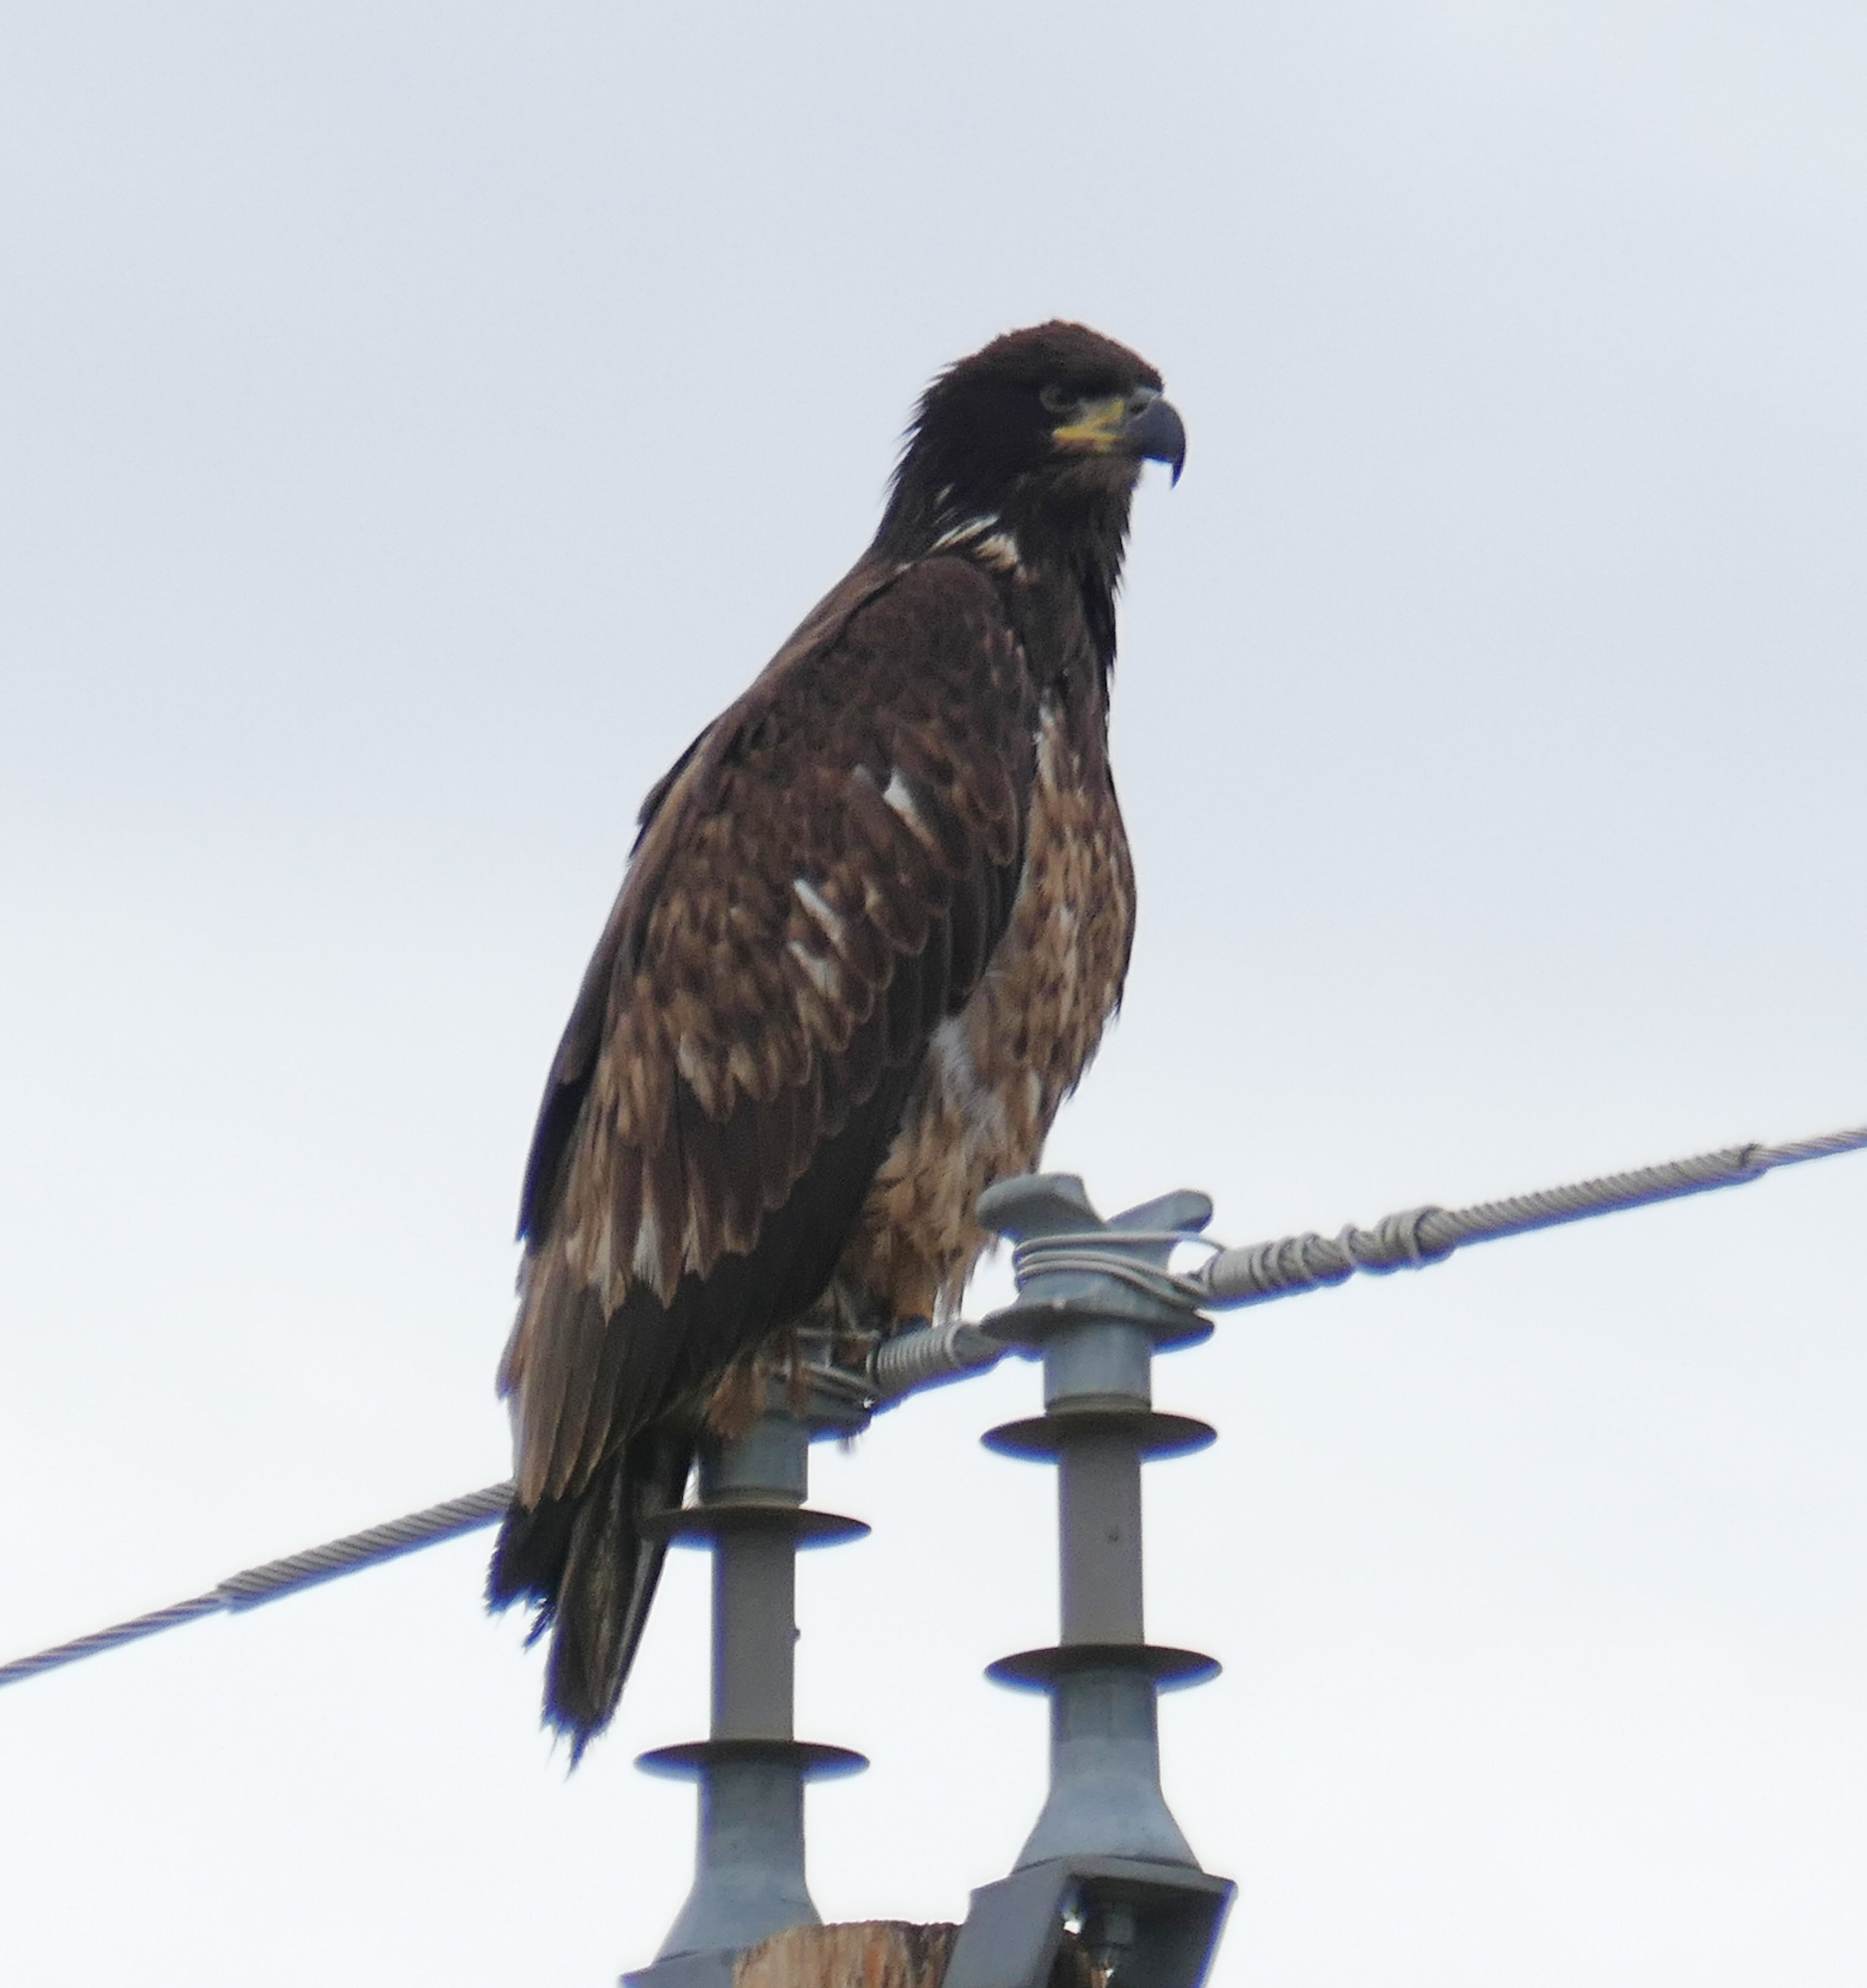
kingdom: Animalia
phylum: Chordata
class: Aves
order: Accipitriformes
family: Accipitridae
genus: Haliaeetus
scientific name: Haliaeetus leucocephalus
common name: Bald eagle
